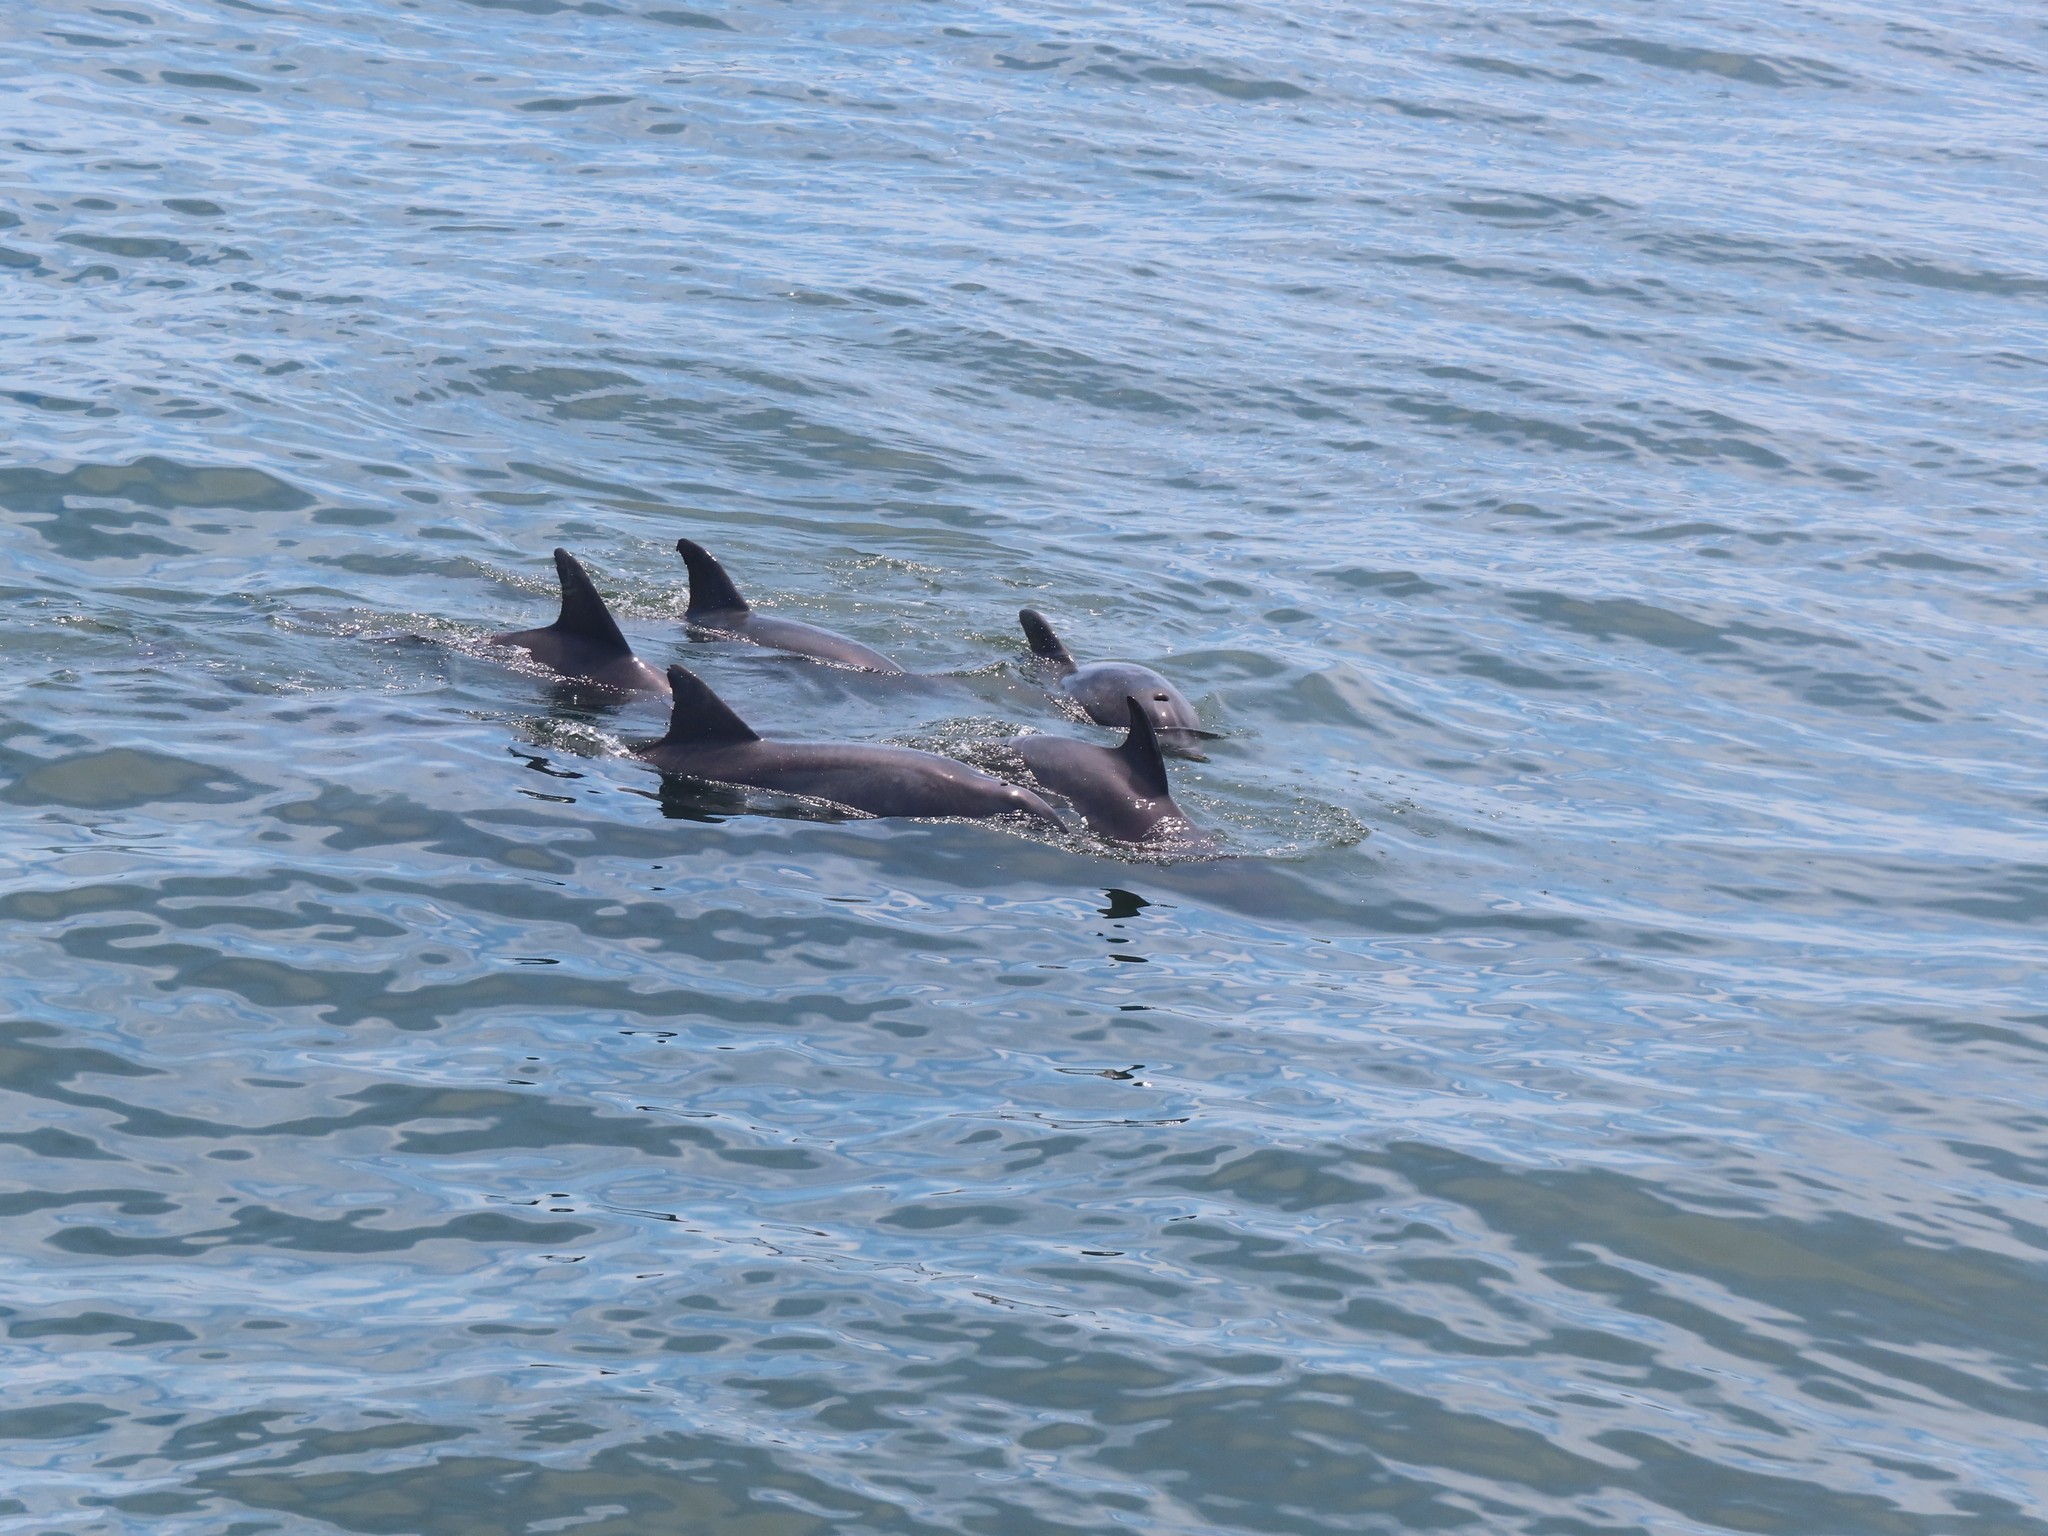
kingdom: Animalia
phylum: Chordata
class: Mammalia
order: Cetacea
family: Delphinidae
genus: Tursiops
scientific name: Tursiops truncatus
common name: Bottlenose dolphin
